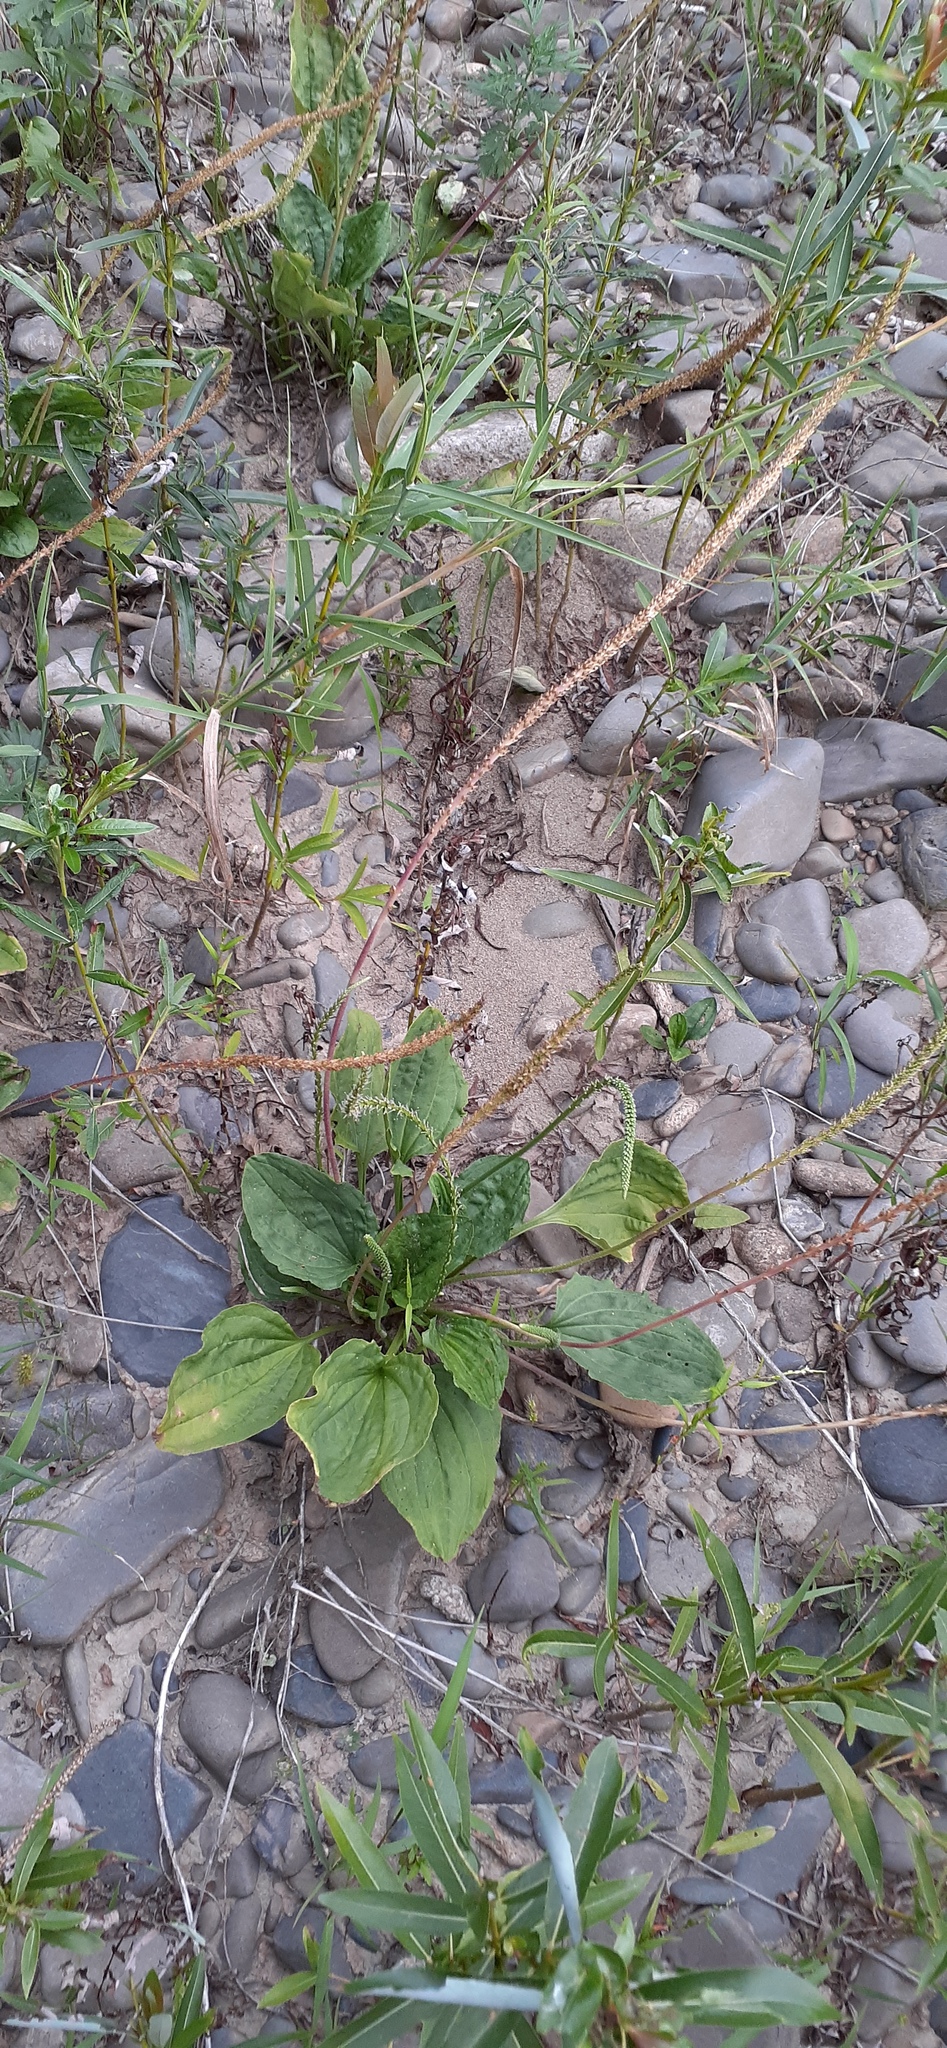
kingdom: Plantae
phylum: Tracheophyta
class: Magnoliopsida
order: Lamiales
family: Plantaginaceae
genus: Plantago
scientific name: Plantago asiatica
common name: Psyllium
